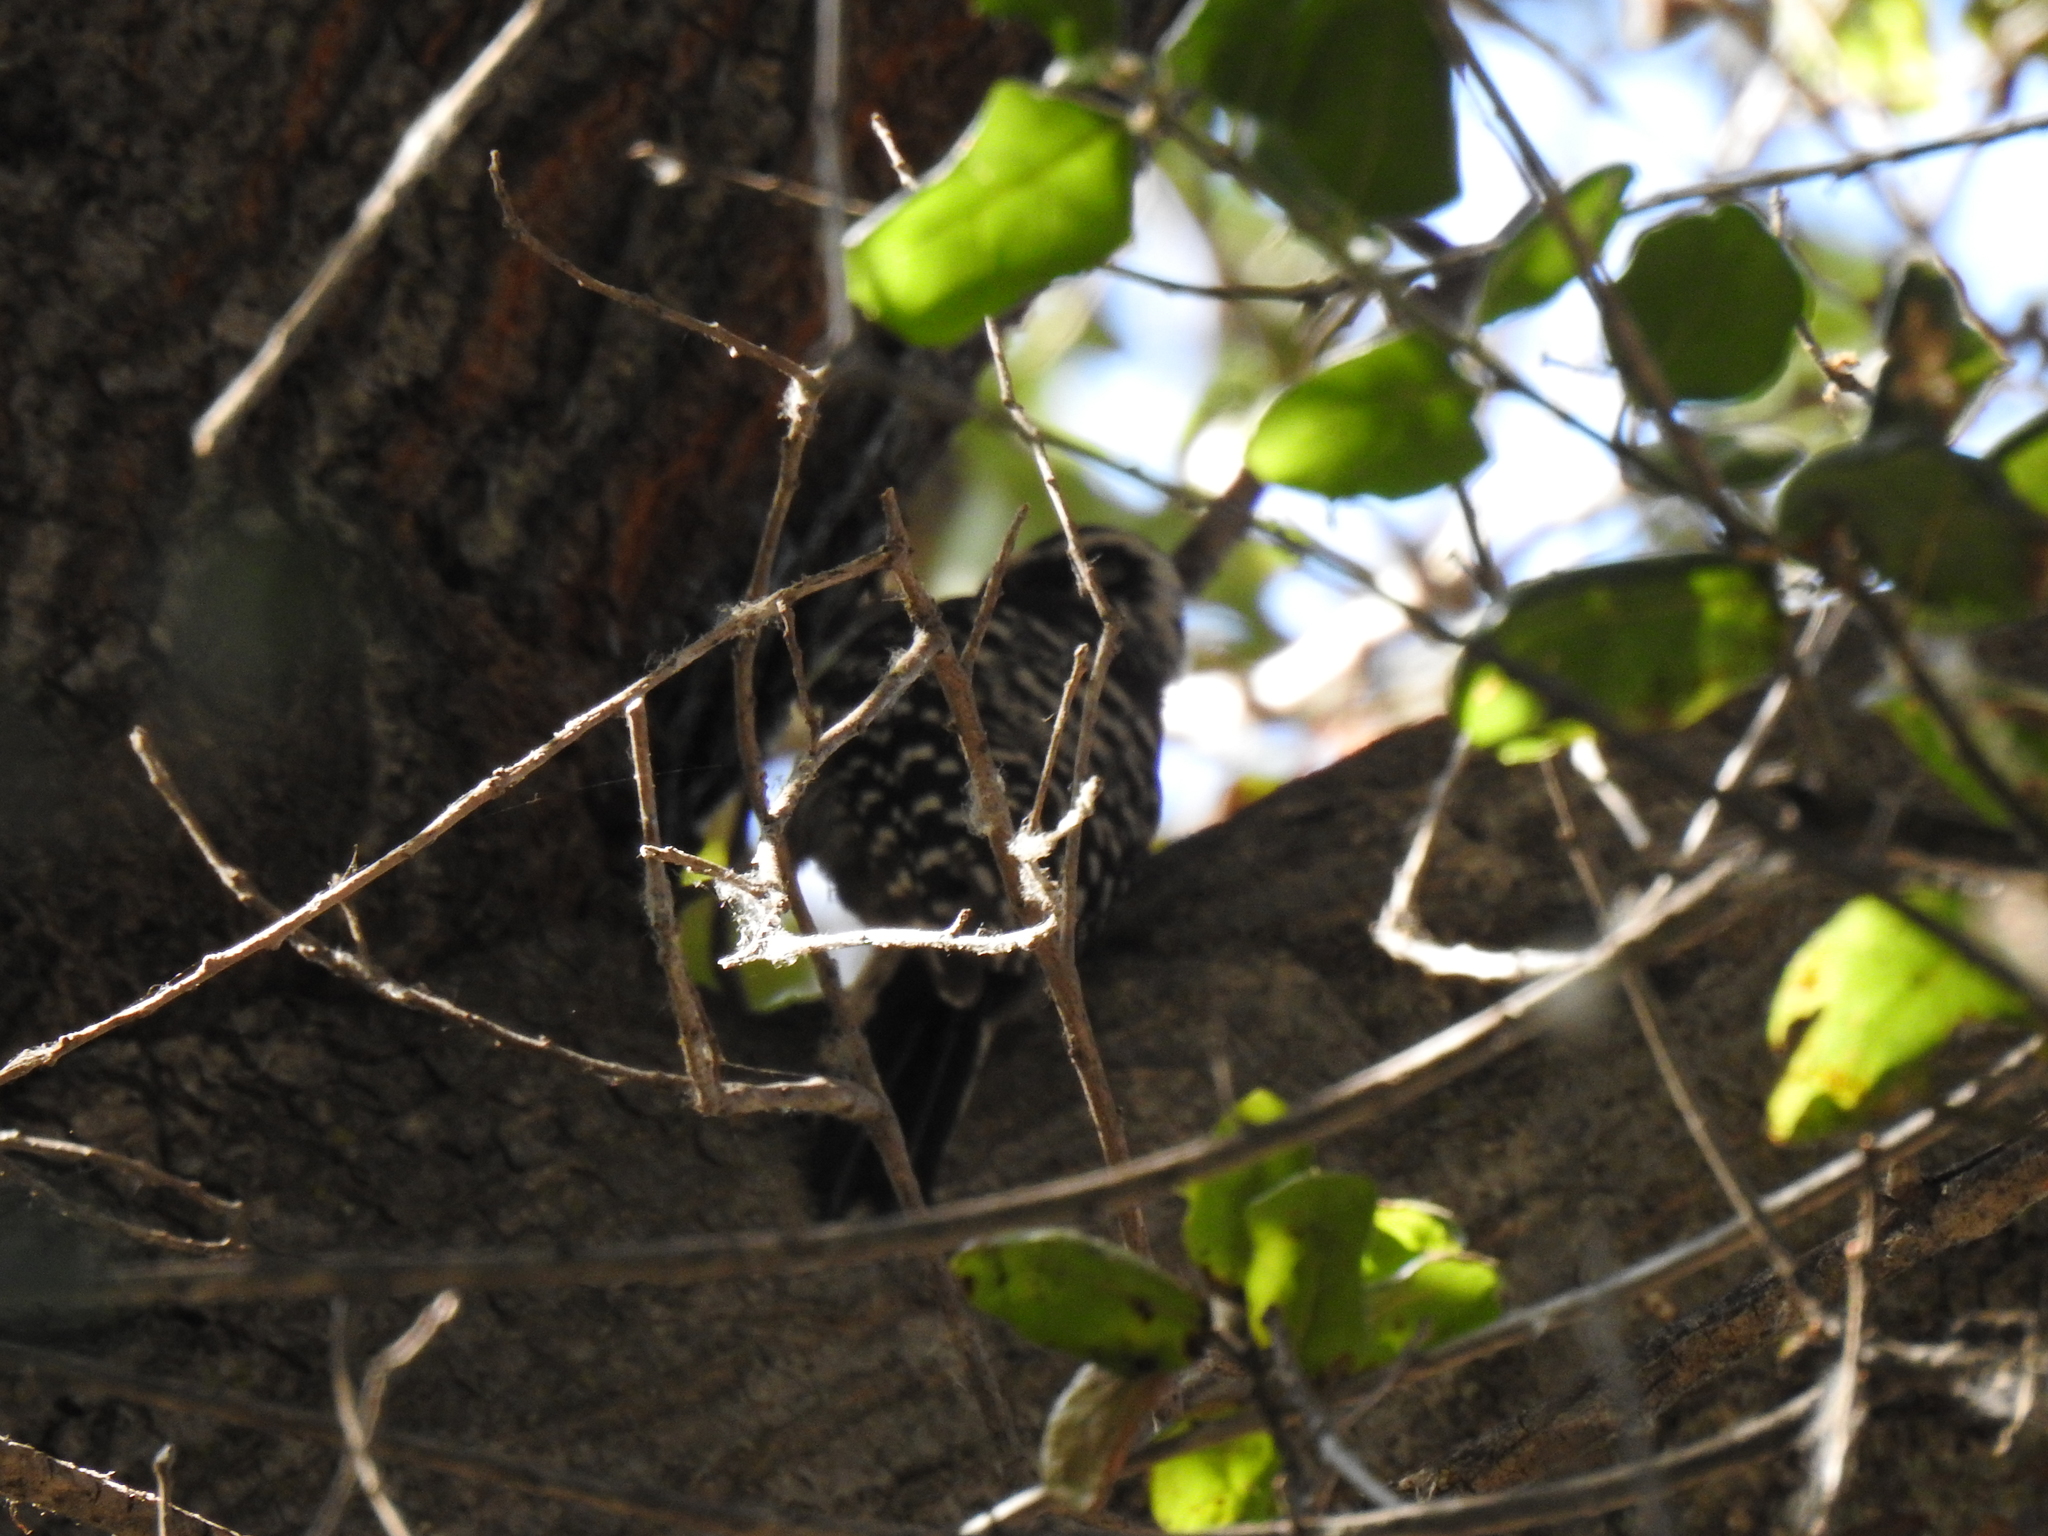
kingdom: Animalia
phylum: Chordata
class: Aves
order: Piciformes
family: Picidae
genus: Dryobates
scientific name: Dryobates nuttallii
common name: Nuttall's woodpecker
